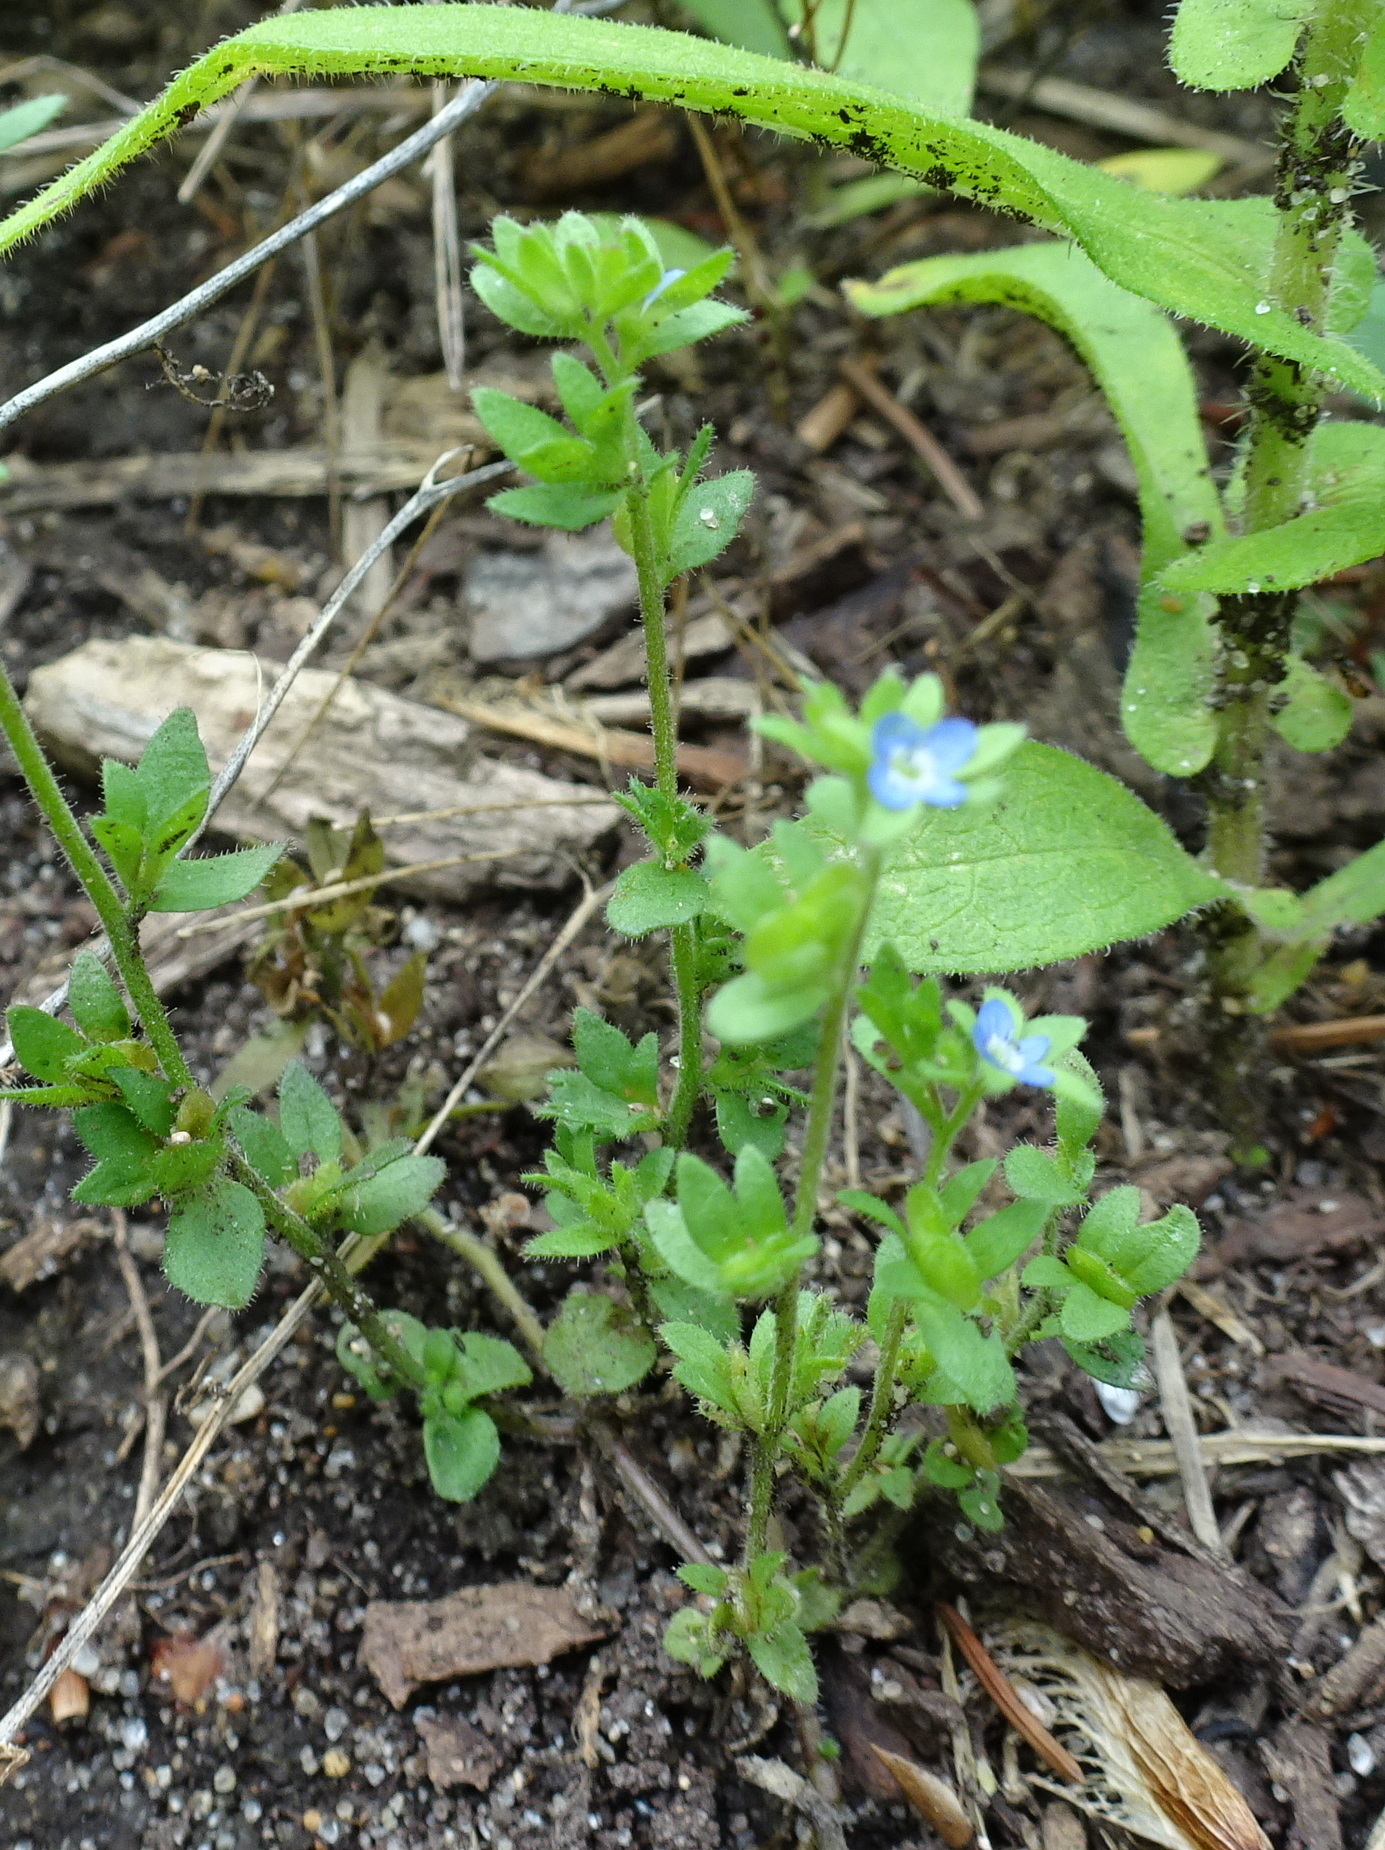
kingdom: Plantae
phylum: Tracheophyta
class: Magnoliopsida
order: Lamiales
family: Plantaginaceae
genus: Veronica
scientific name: Veronica arvensis
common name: Corn speedwell
